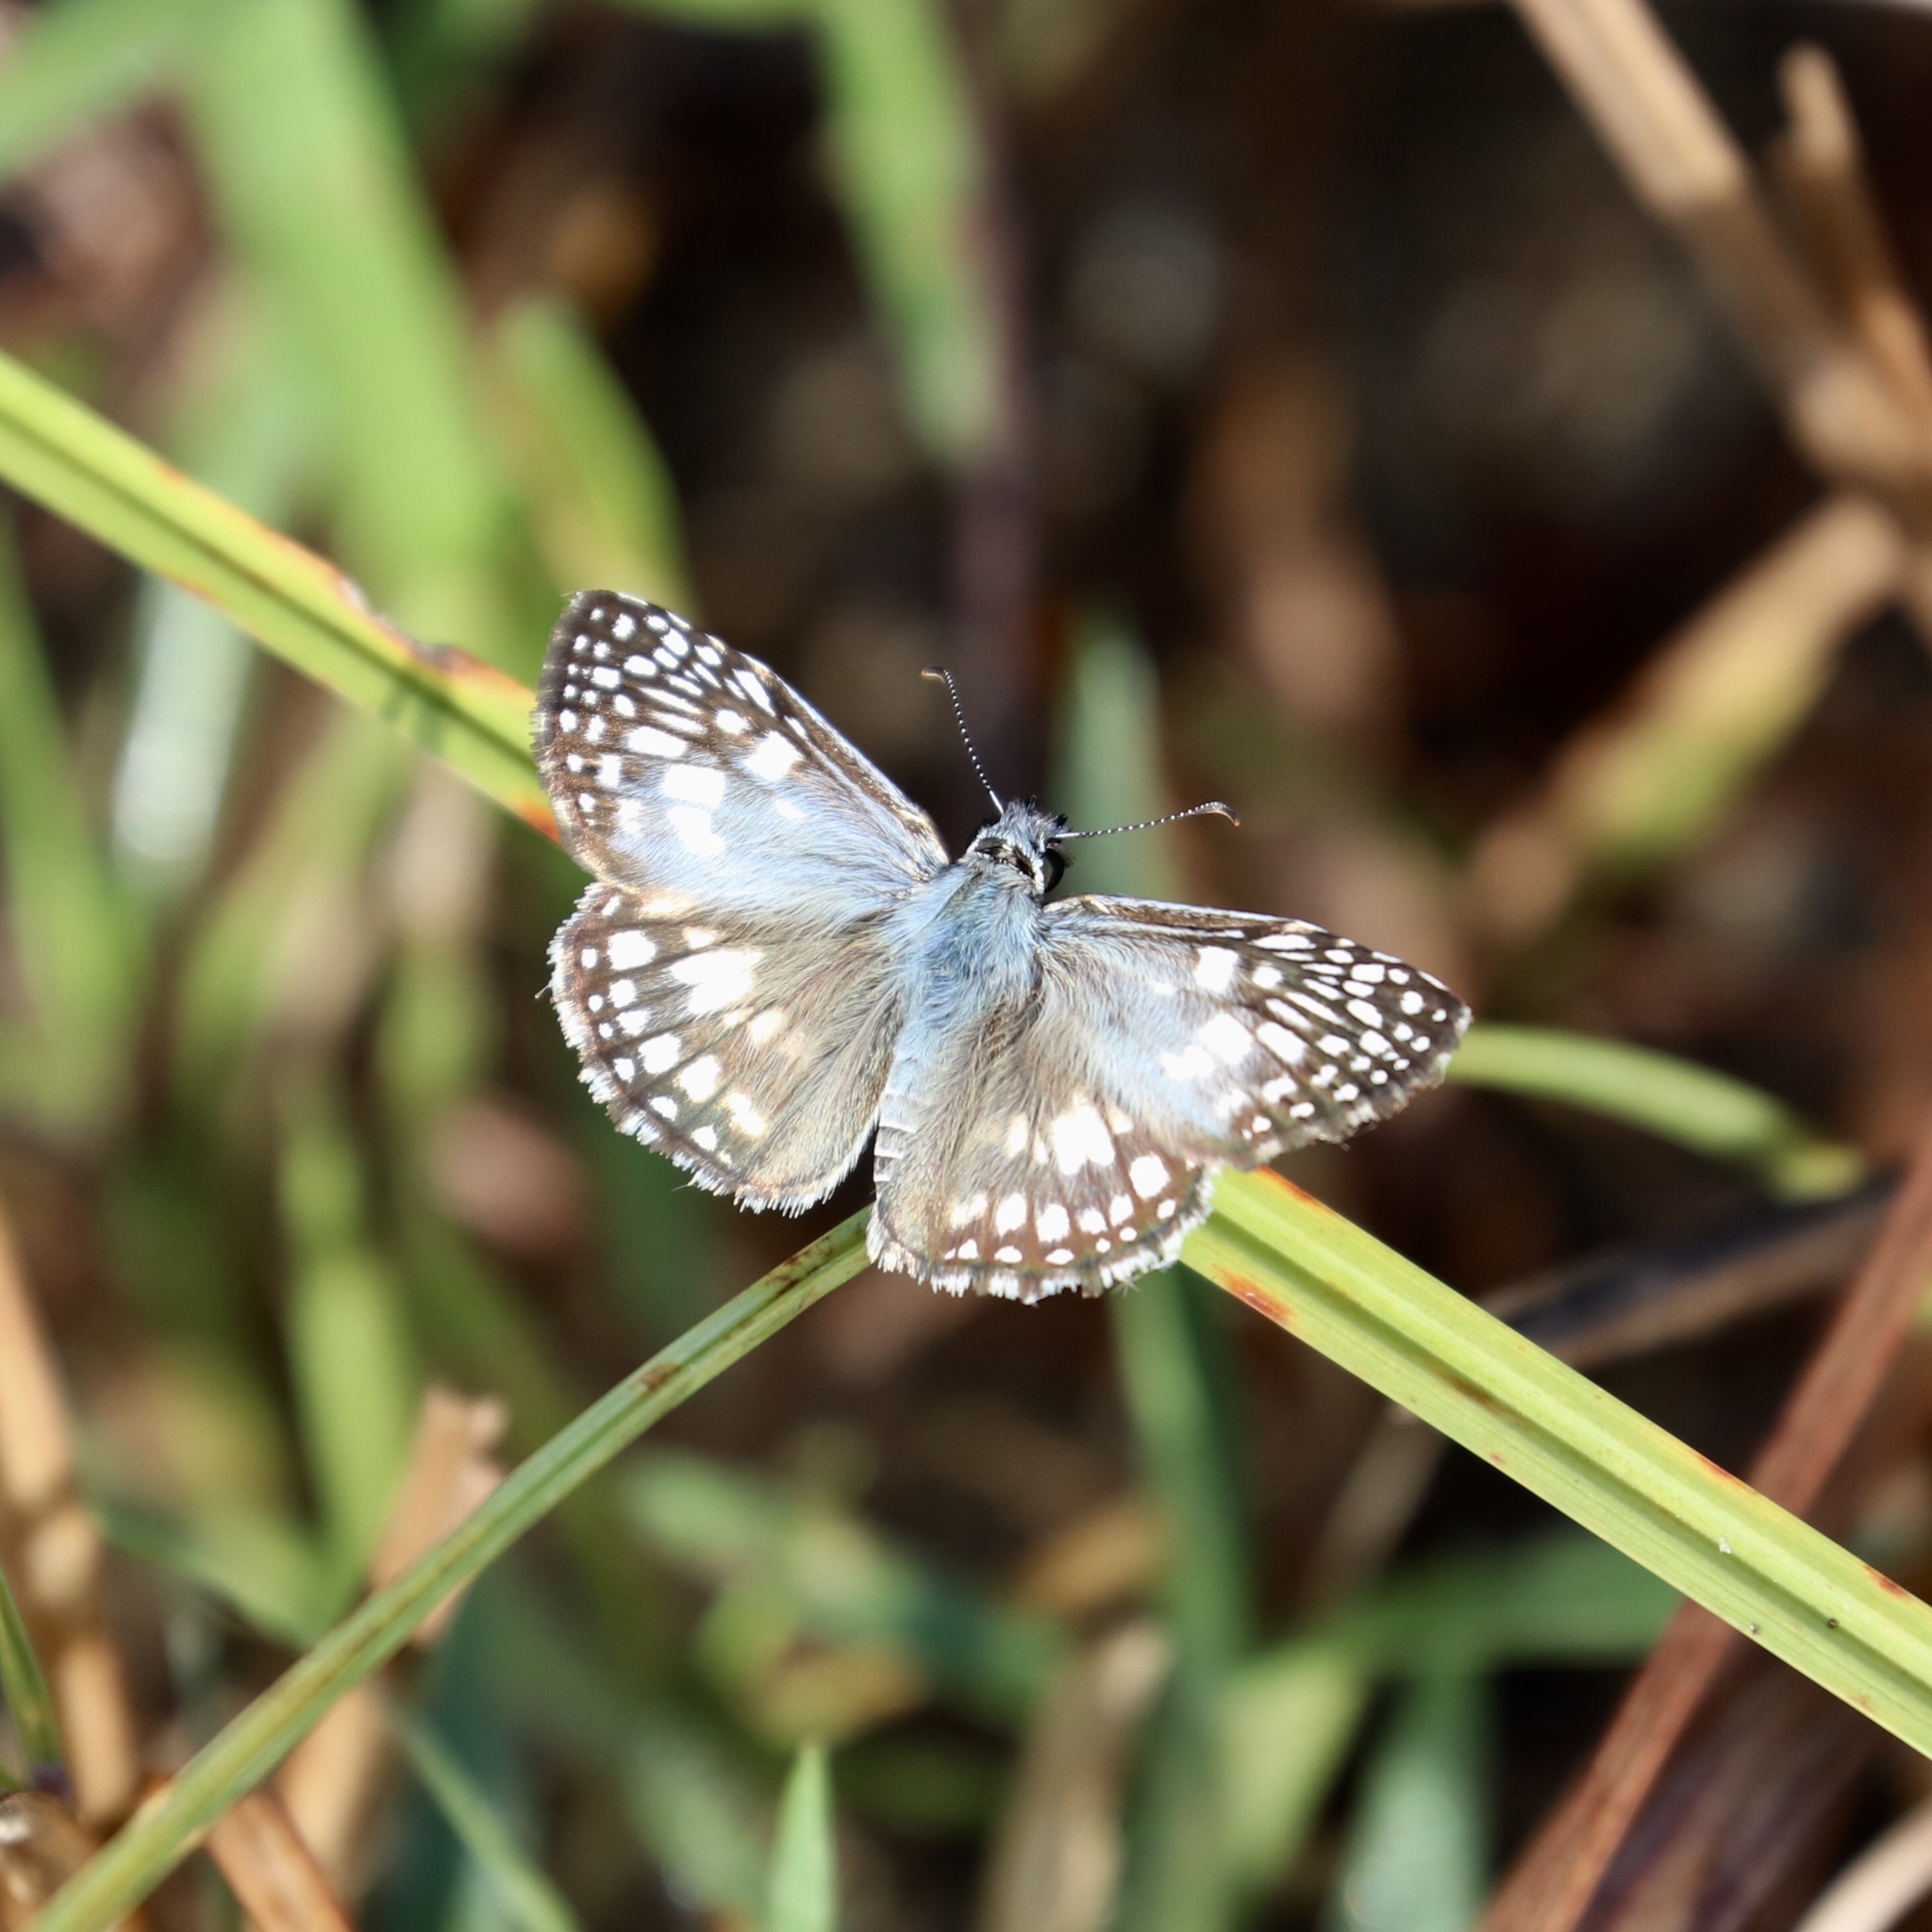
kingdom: Animalia
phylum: Arthropoda
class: Insecta
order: Lepidoptera
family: Hesperiidae
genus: Pyrgus
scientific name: Pyrgus oileus
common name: Tropical checkered-skipper
